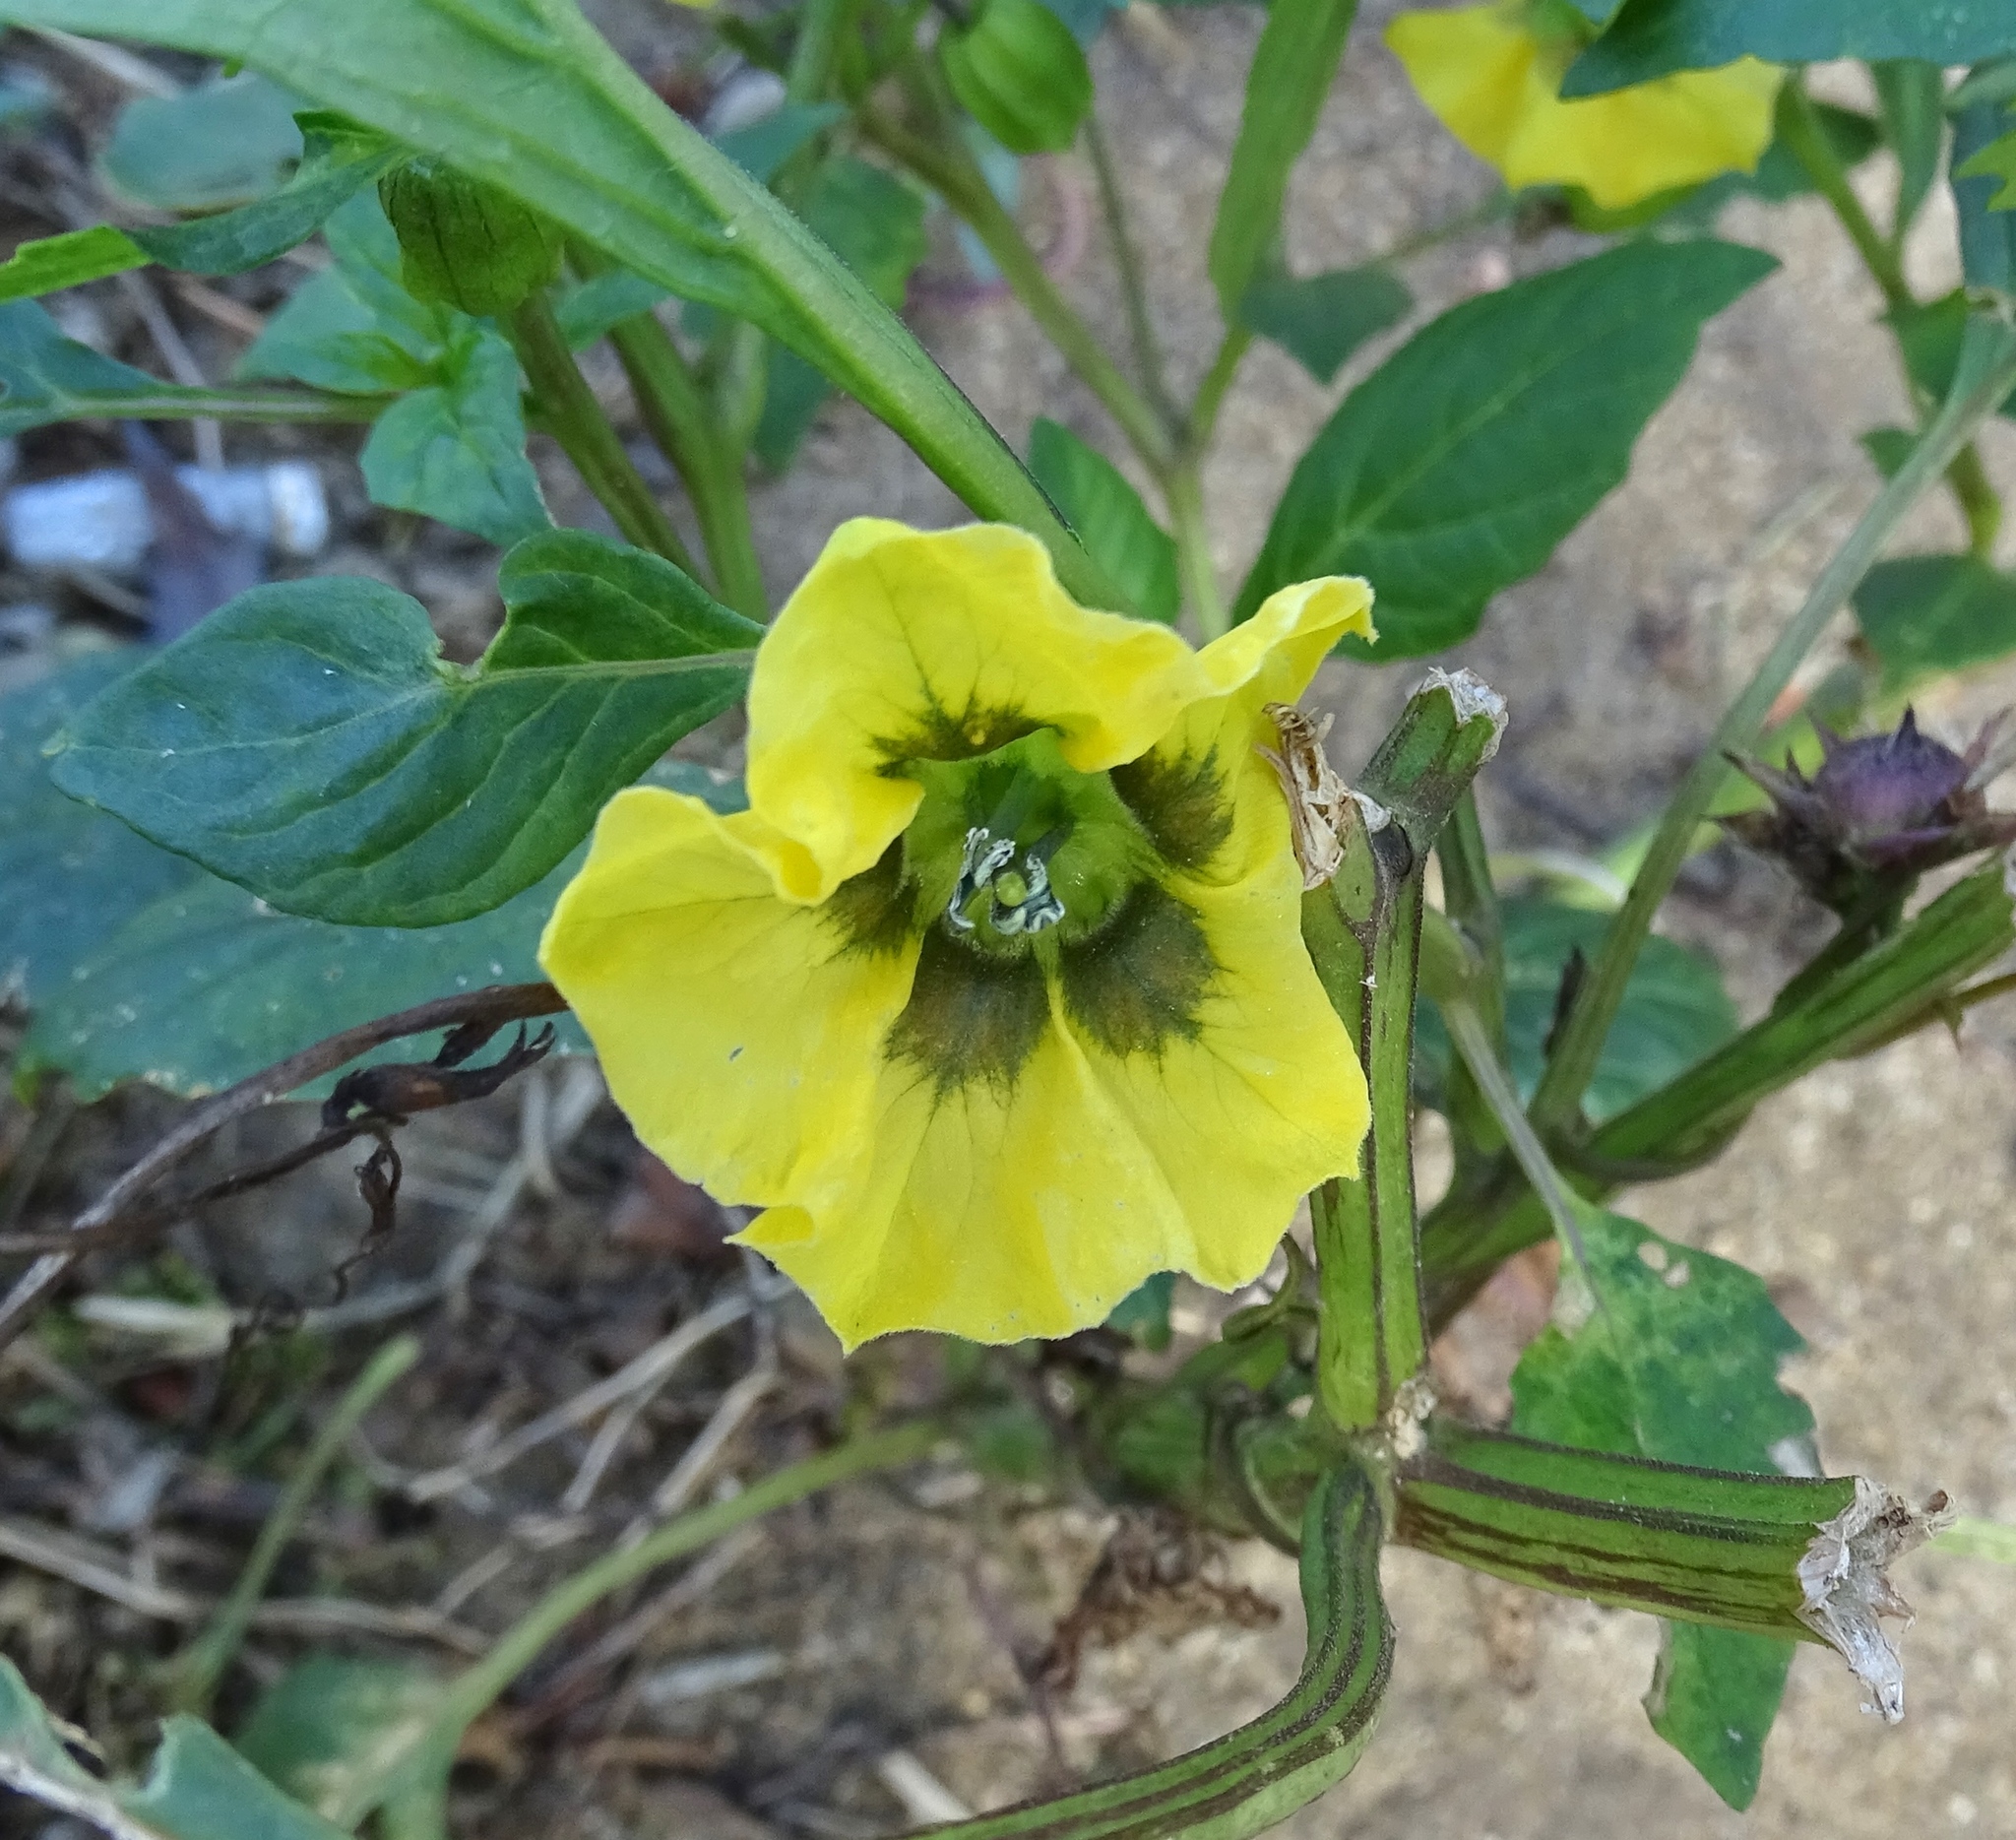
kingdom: Plantae
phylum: Tracheophyta
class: Magnoliopsida
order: Solanales
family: Solanaceae
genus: Physalis
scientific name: Physalis philadelphica
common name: Husk-tomato
